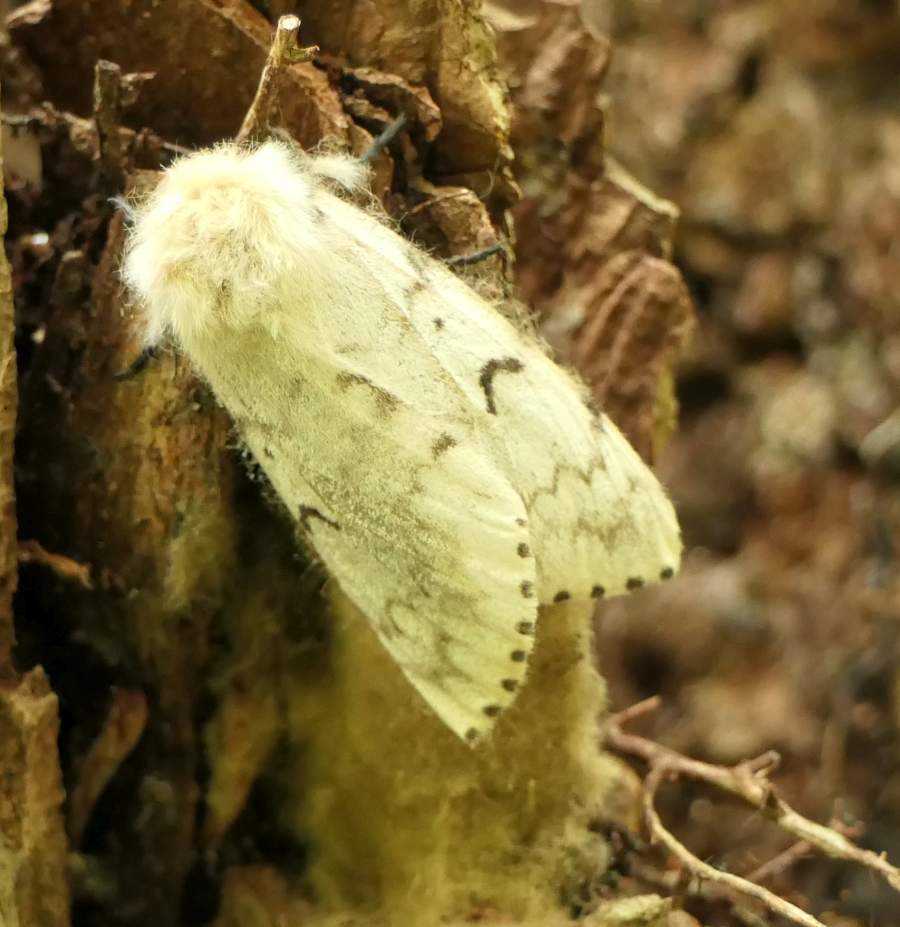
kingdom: Animalia
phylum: Arthropoda
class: Insecta
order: Lepidoptera
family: Erebidae
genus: Lymantria
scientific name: Lymantria dispar
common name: Gypsy moth
